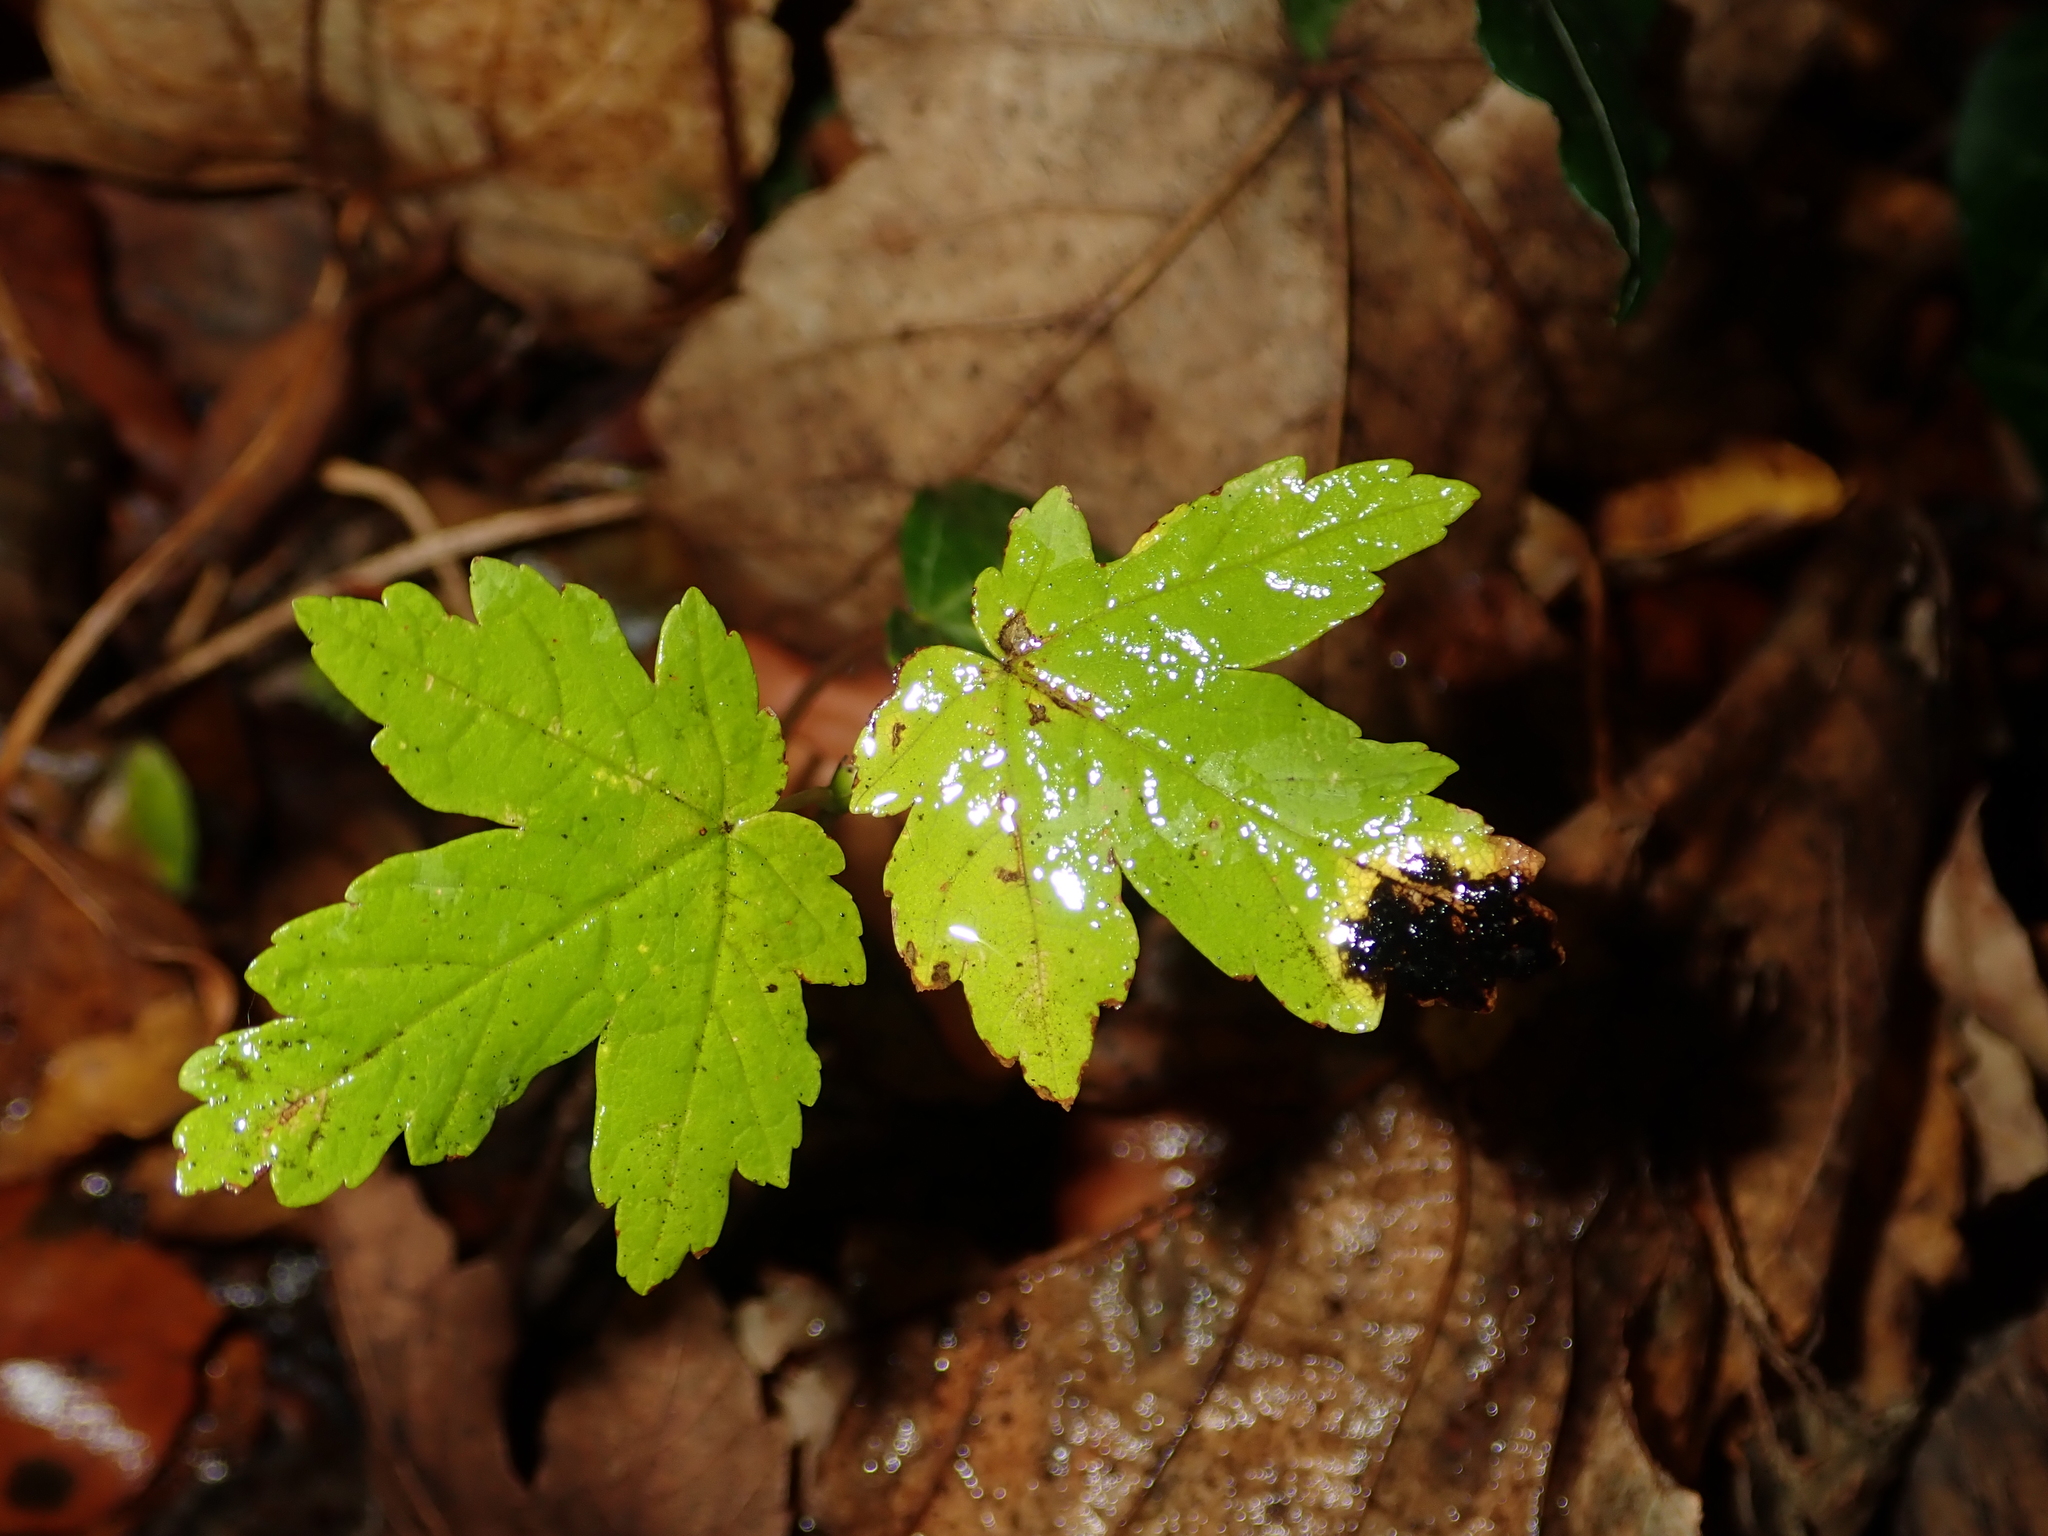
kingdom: Plantae
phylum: Tracheophyta
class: Magnoliopsida
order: Sapindales
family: Sapindaceae
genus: Acer
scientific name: Acer pseudoplatanus
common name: Sycamore
